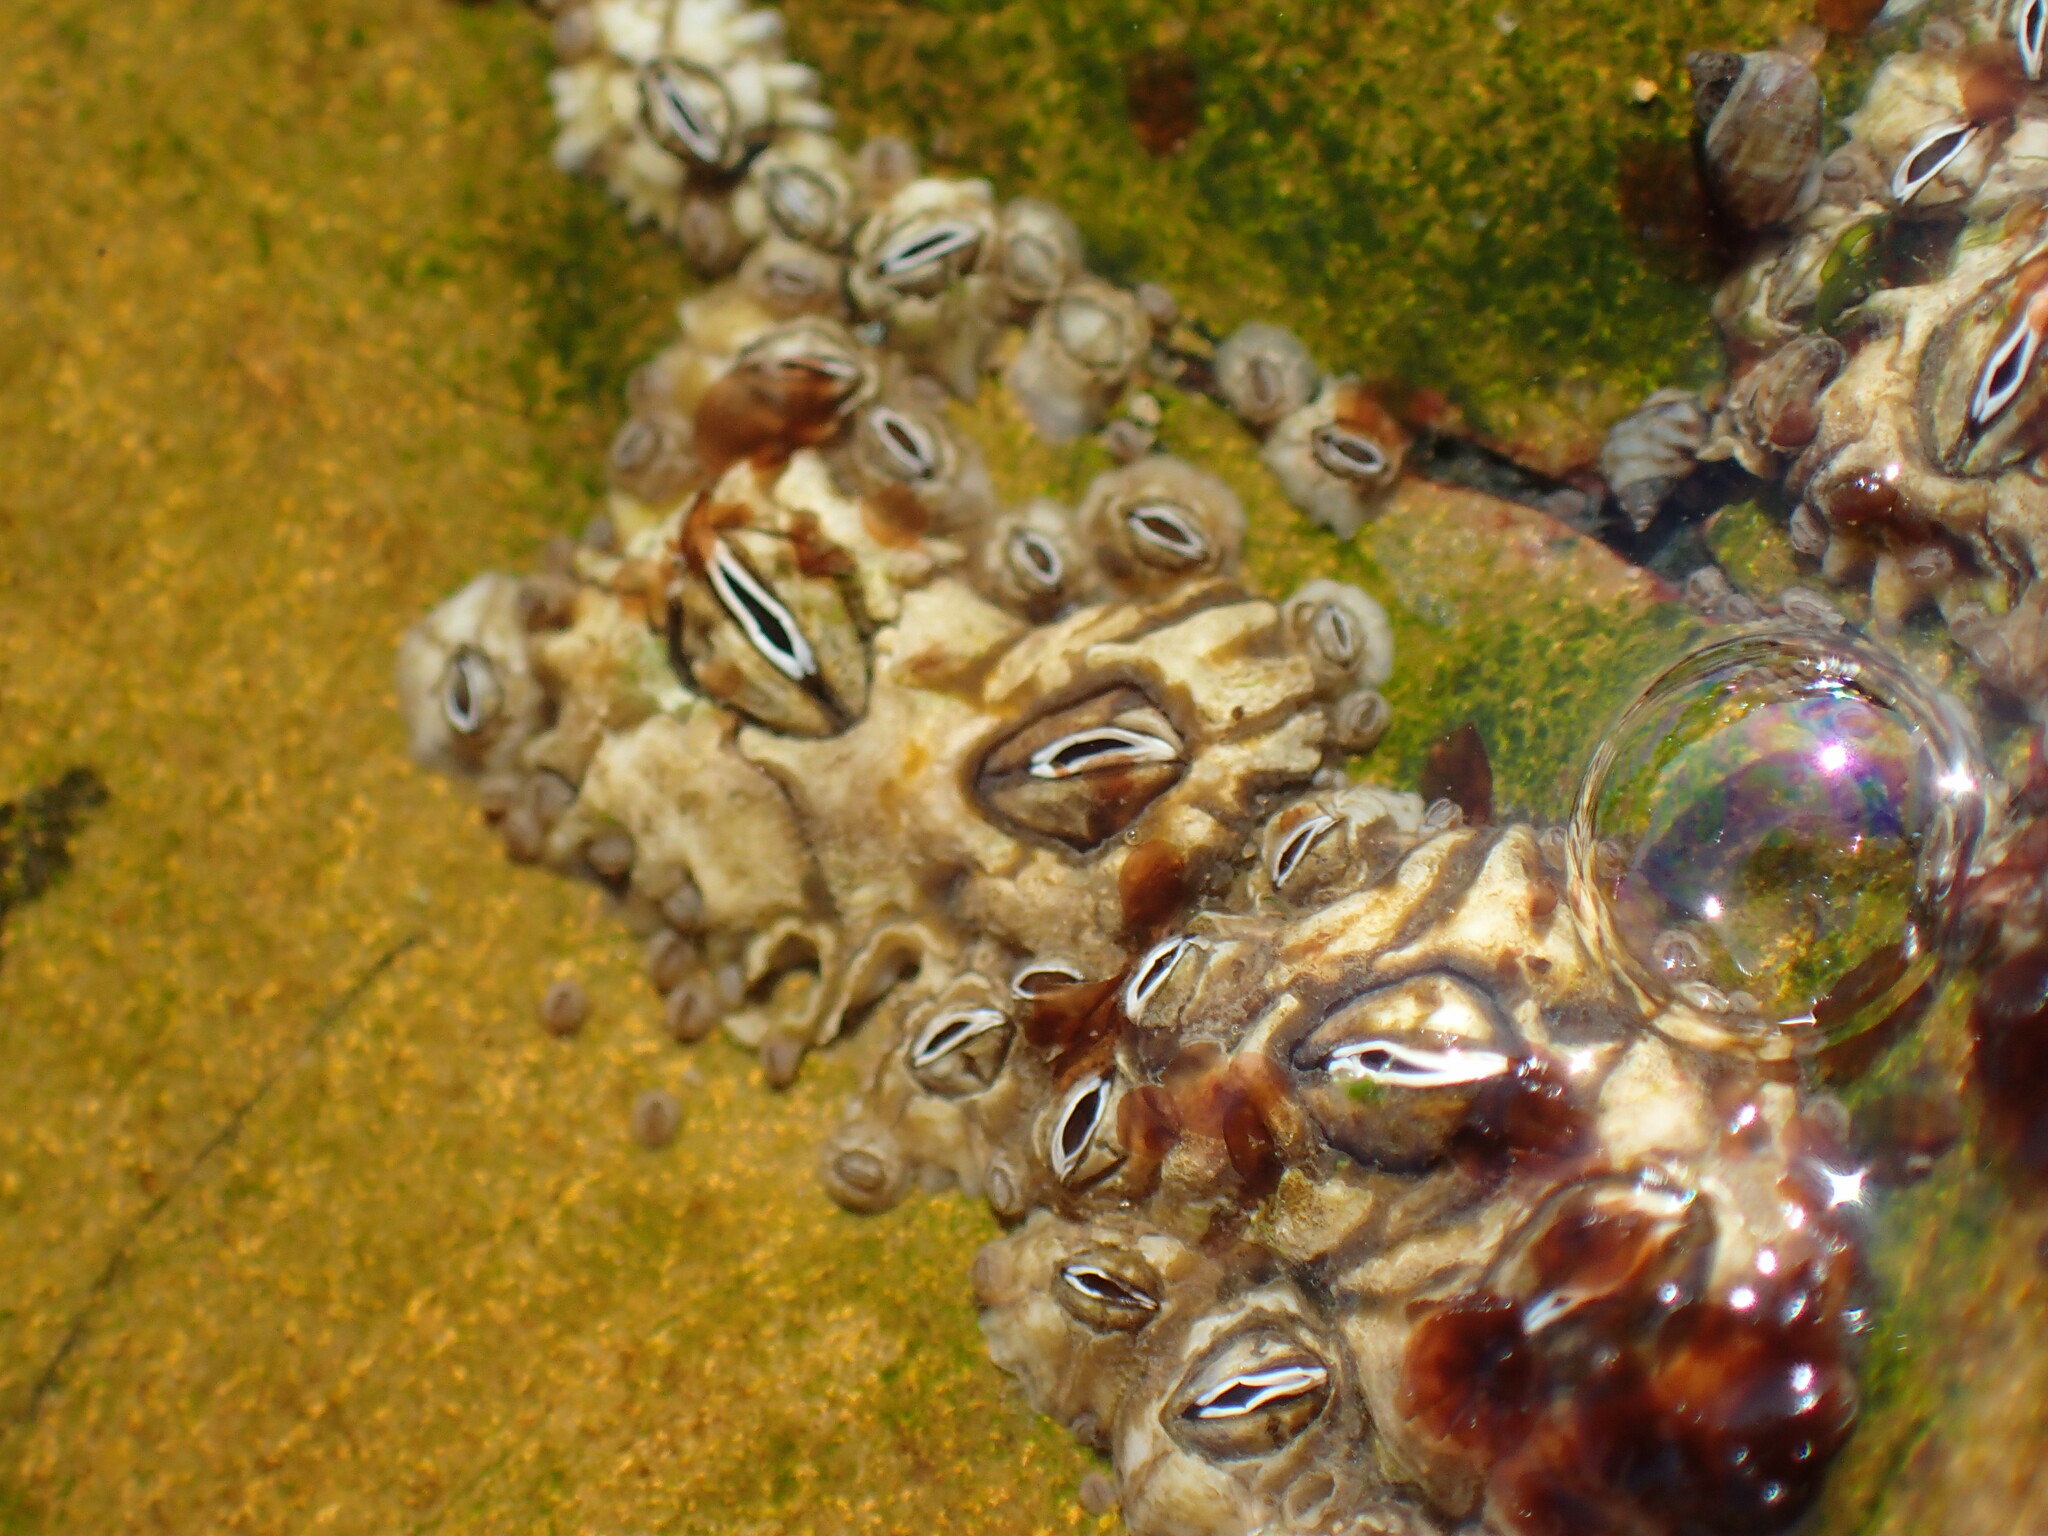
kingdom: Animalia
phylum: Arthropoda
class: Maxillopoda
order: Sessilia
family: Chthamalidae
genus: Octomeris
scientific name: Octomeris angulosa
